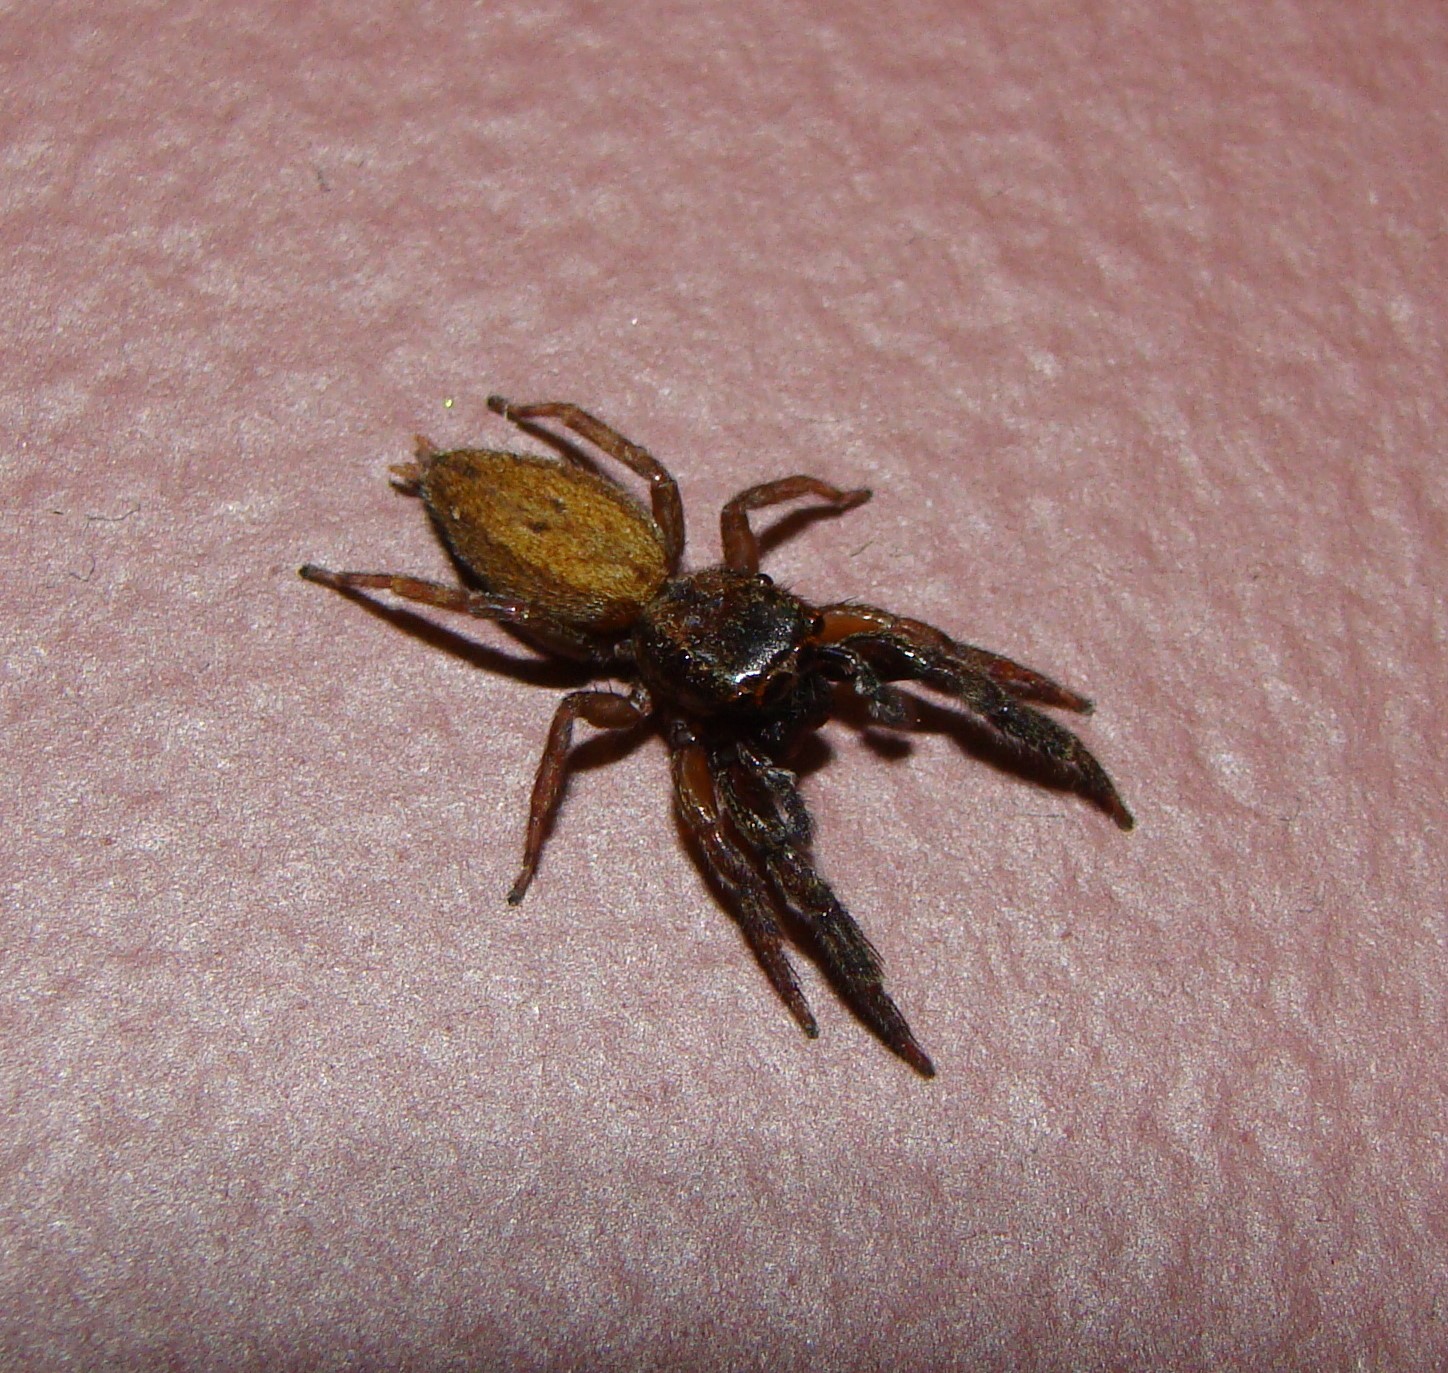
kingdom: Animalia
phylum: Arthropoda
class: Arachnida
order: Araneae
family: Salticidae
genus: Trite
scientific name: Trite auricoma
